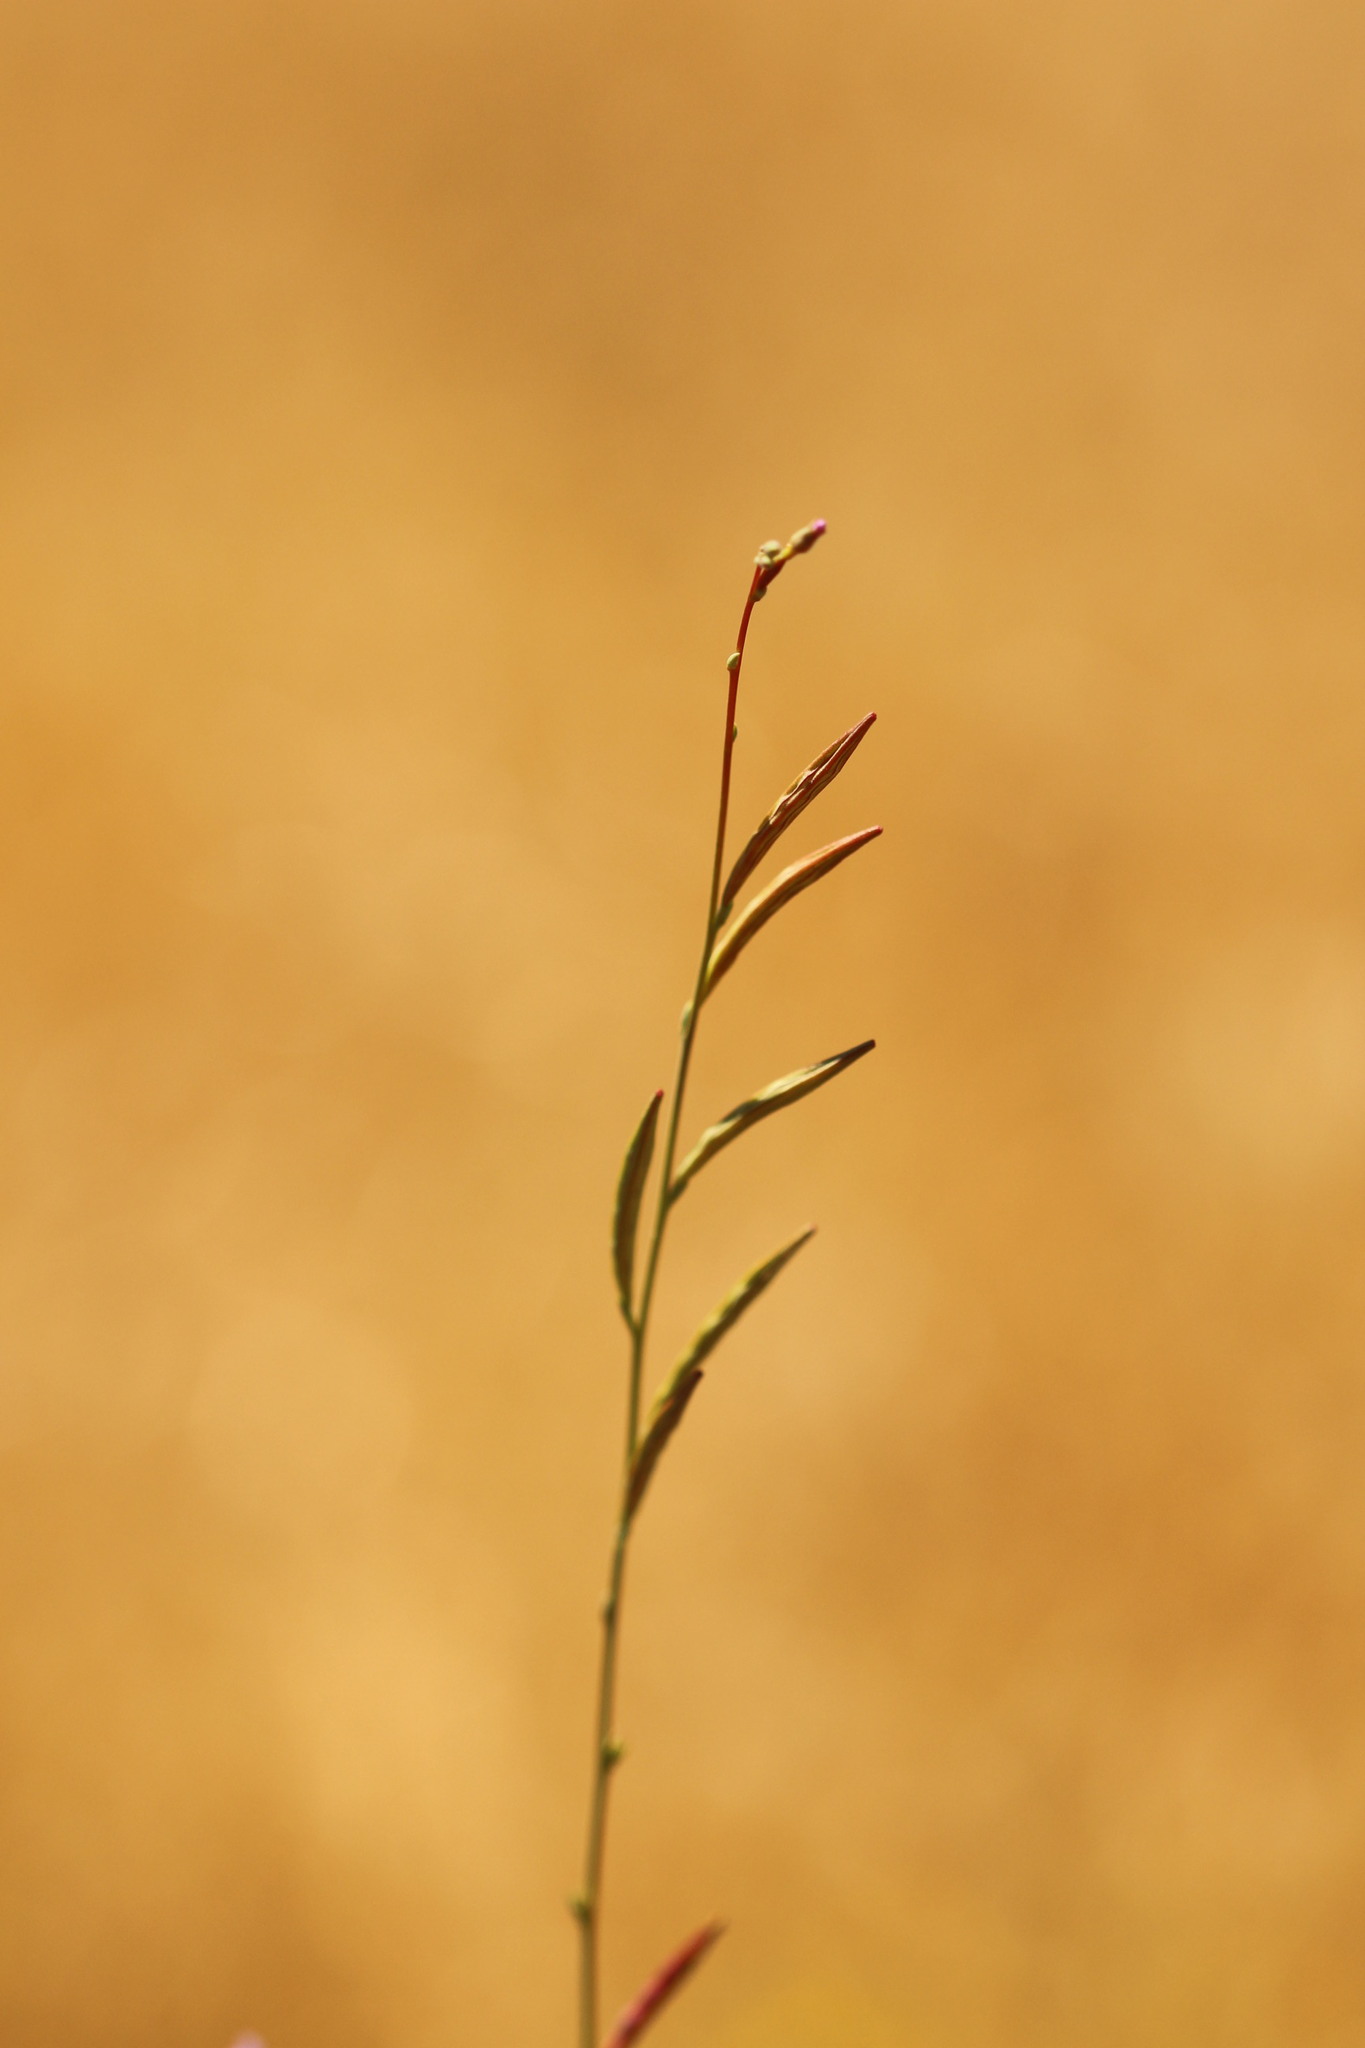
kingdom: Plantae
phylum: Tracheophyta
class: Magnoliopsida
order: Myrtales
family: Onagraceae
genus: Epilobium
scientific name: Epilobium brachycarpum
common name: Annual willowherb
